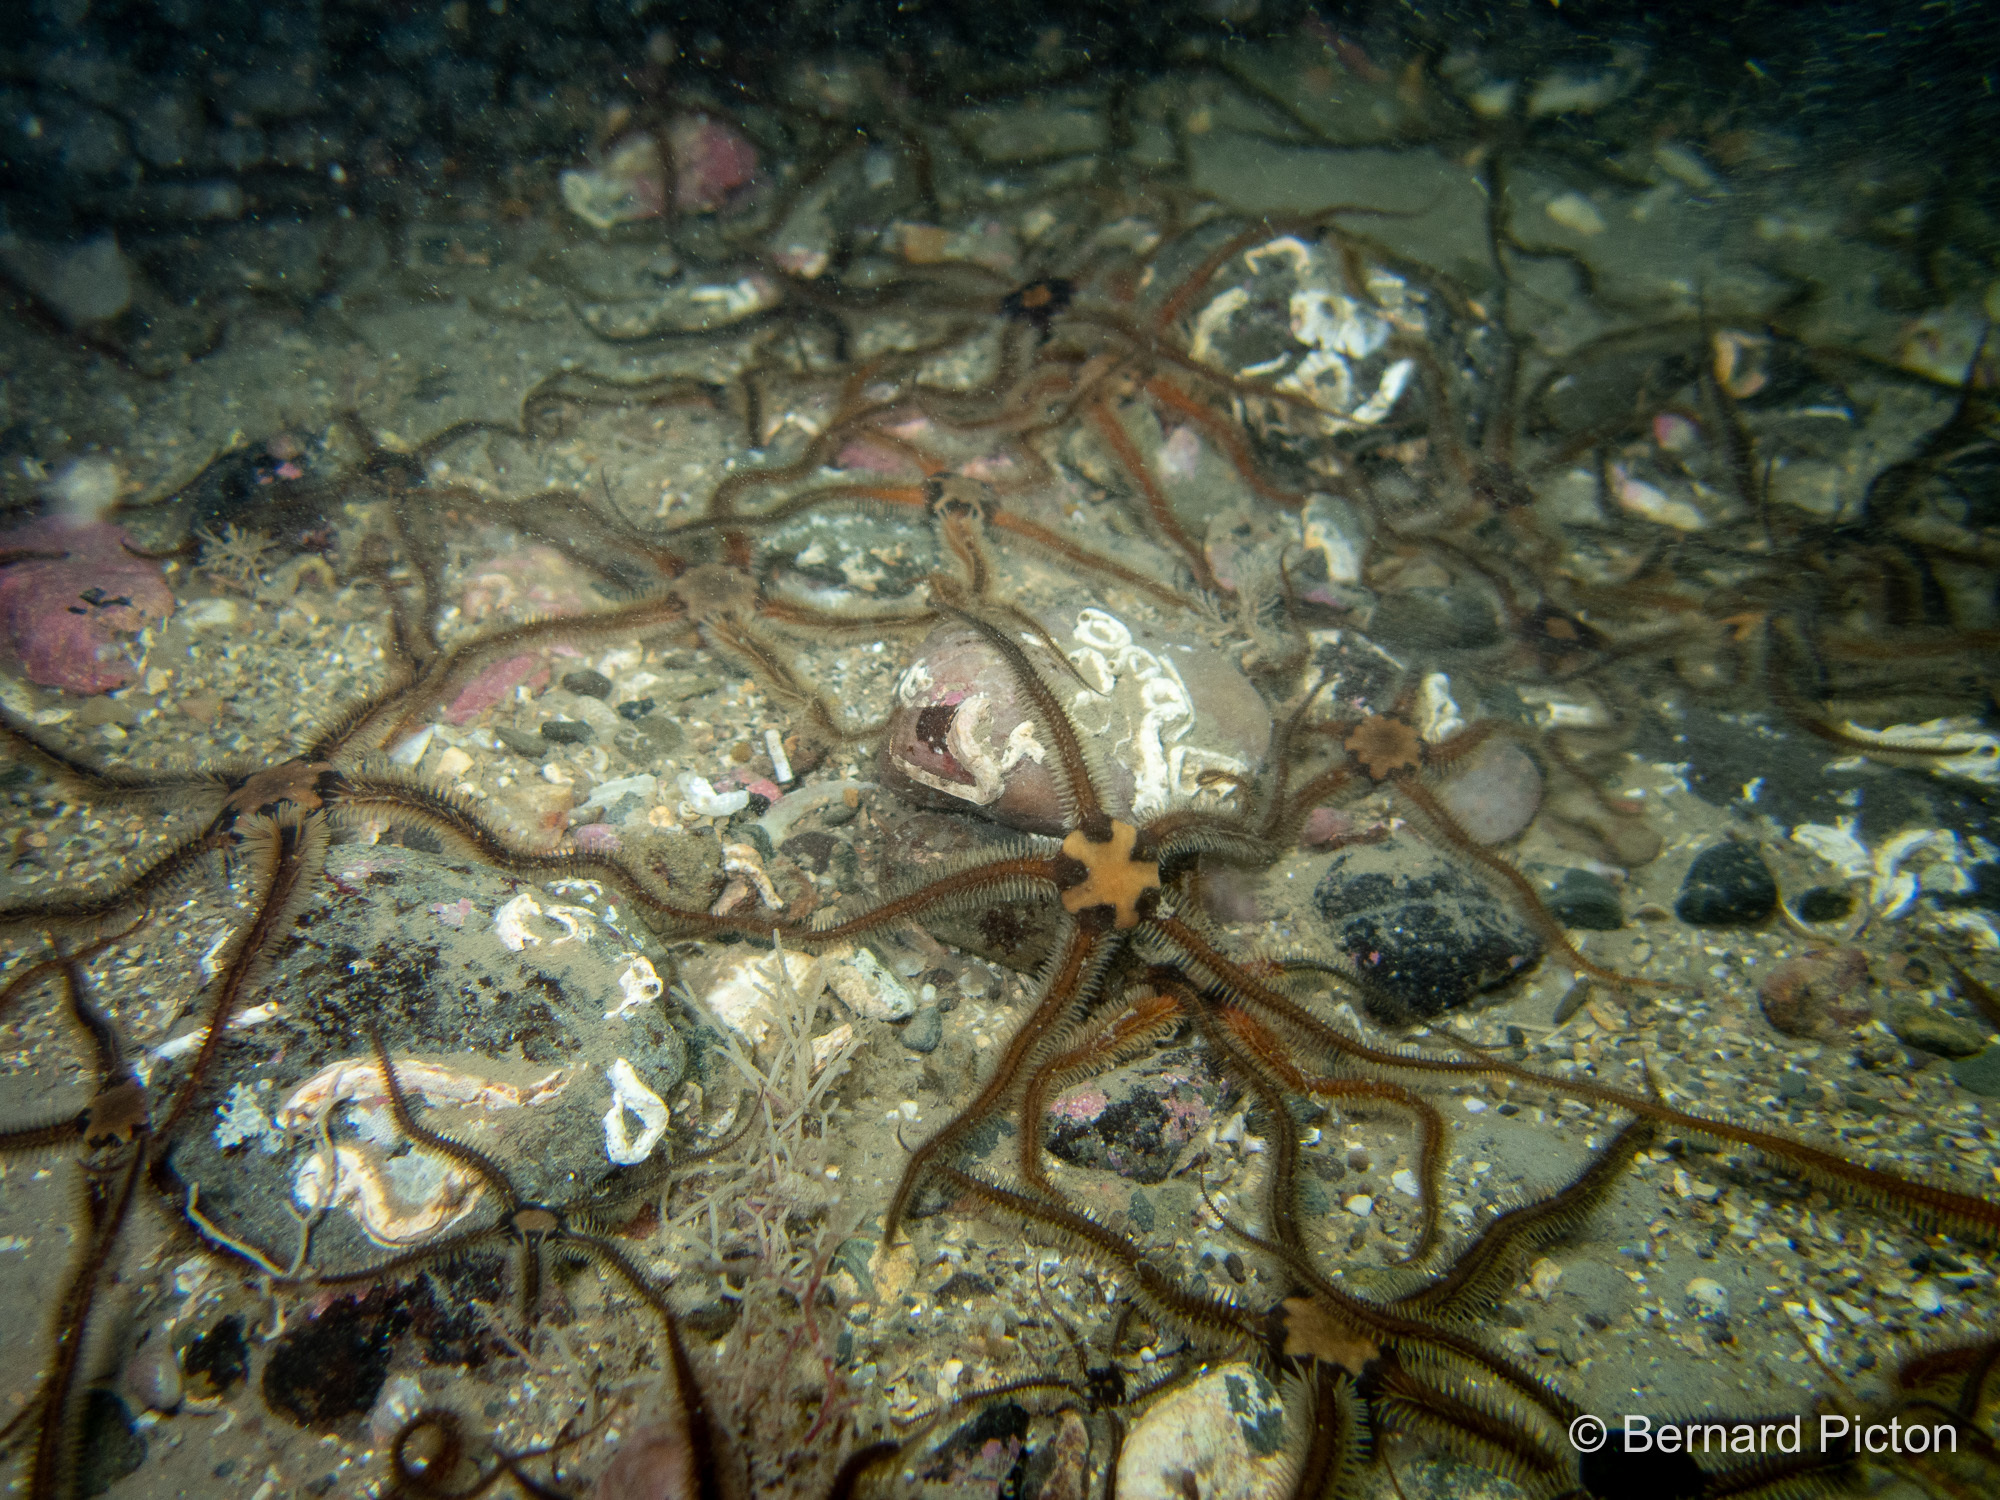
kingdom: Animalia
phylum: Echinodermata
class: Ophiuroidea
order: Ophiacanthida
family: Ophiotomidae
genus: Ophiocomina
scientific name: Ophiocomina nigra
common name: Black brittle star
